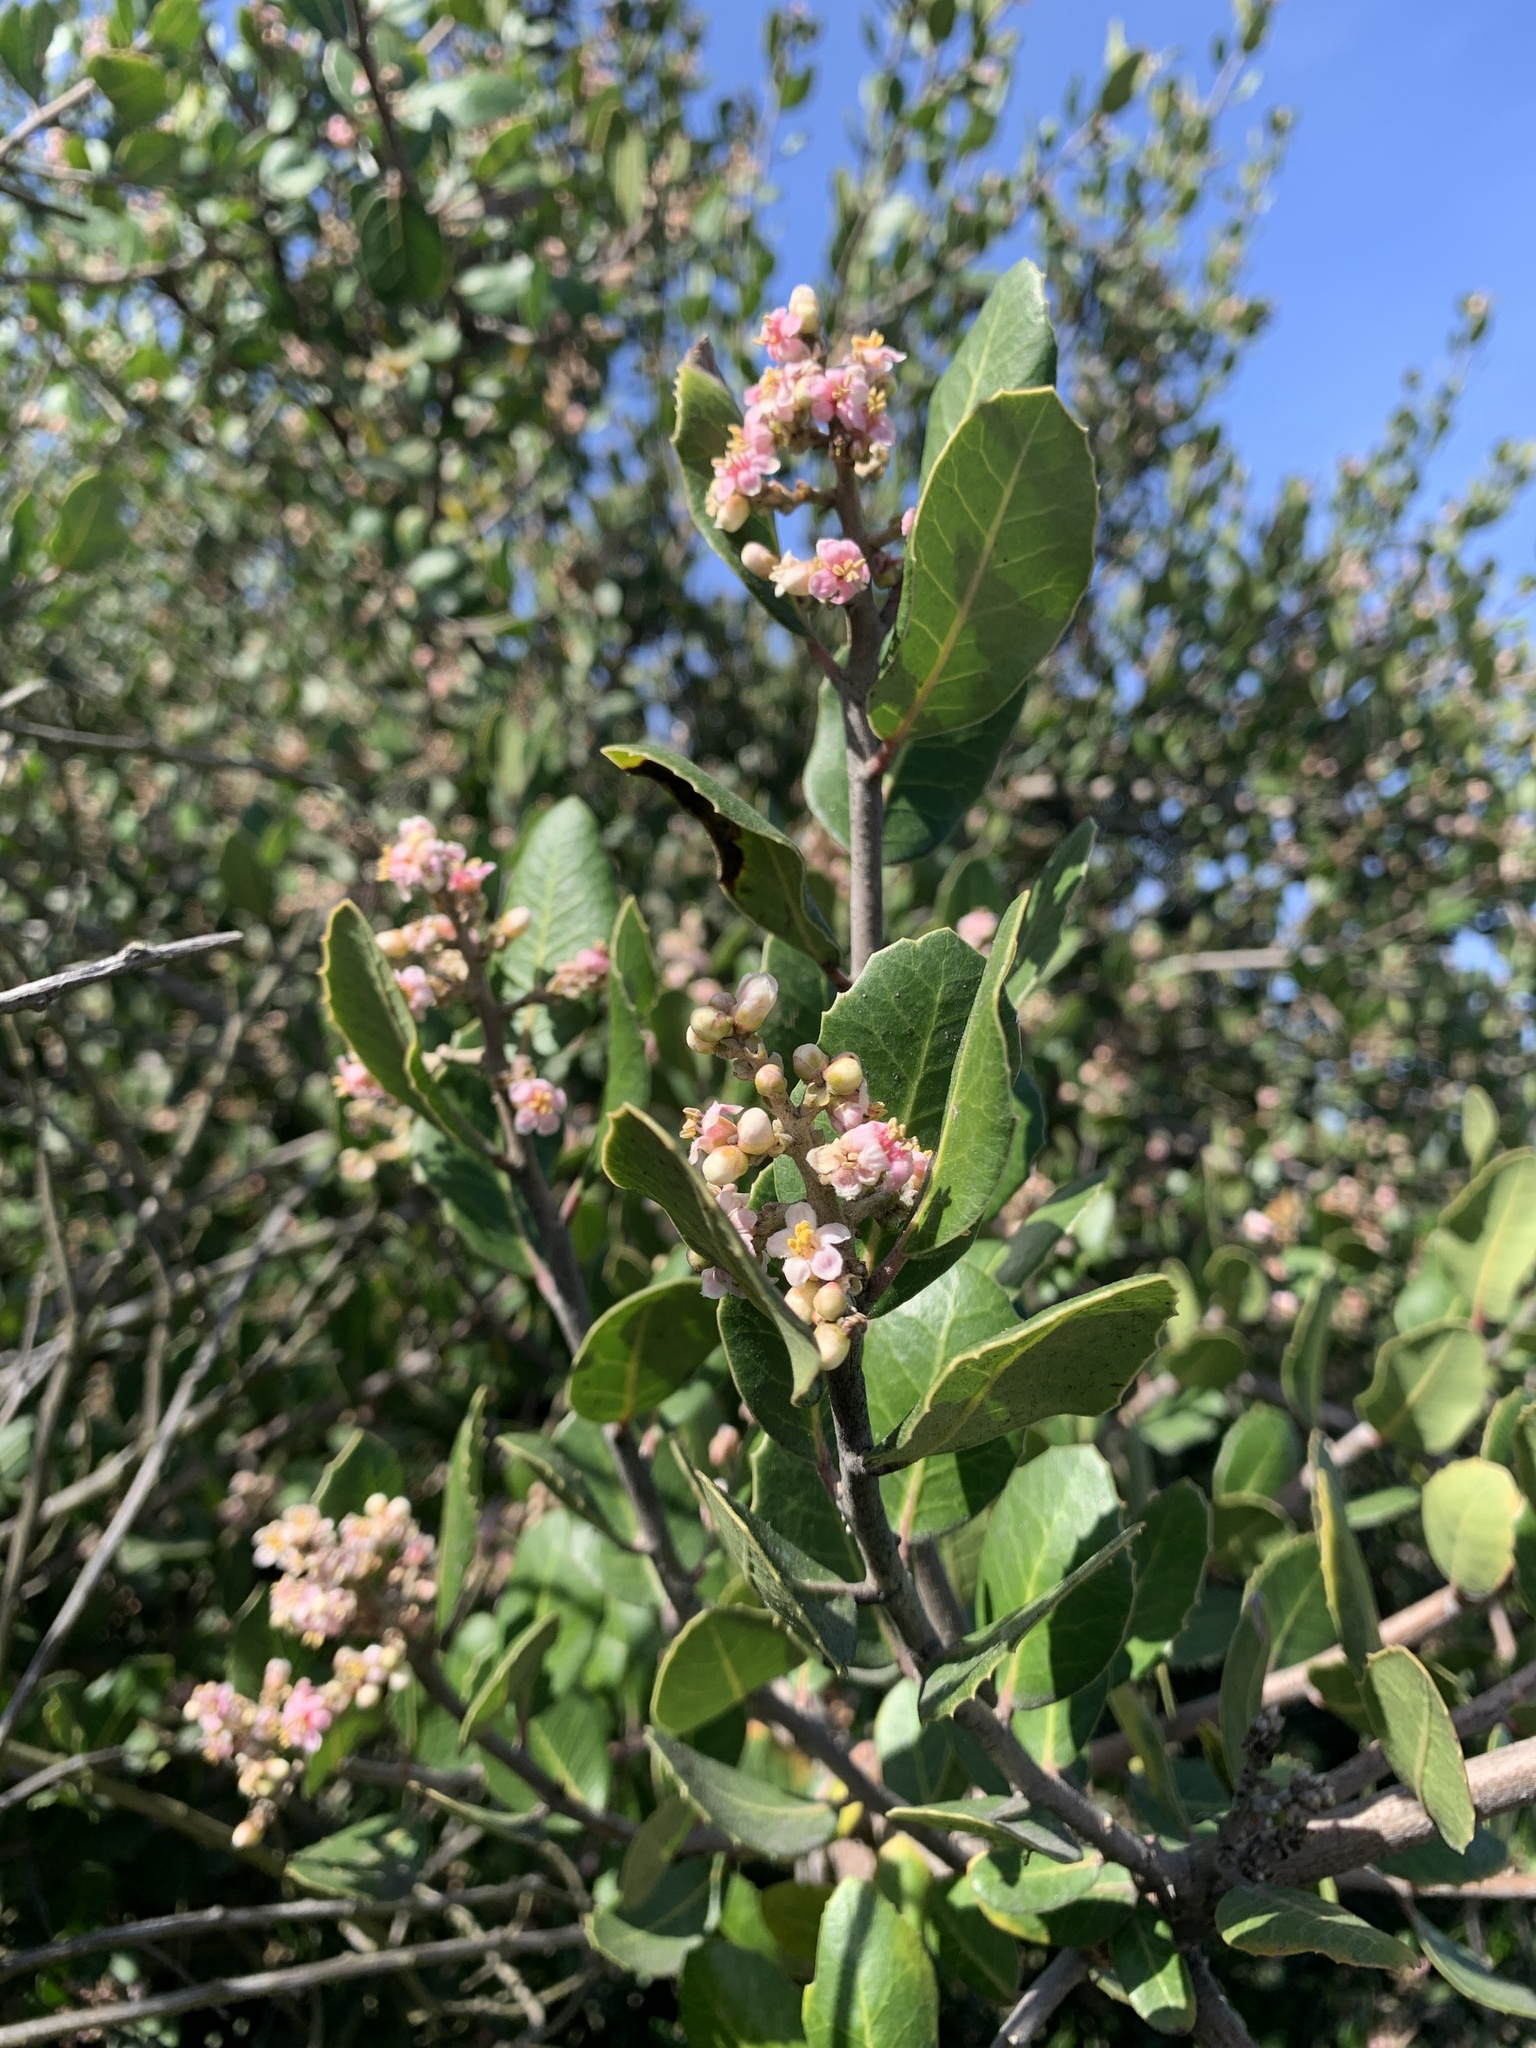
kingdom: Plantae
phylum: Tracheophyta
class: Magnoliopsida
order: Sapindales
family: Anacardiaceae
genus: Rhus
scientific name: Rhus integrifolia
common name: Lemonade sumac
